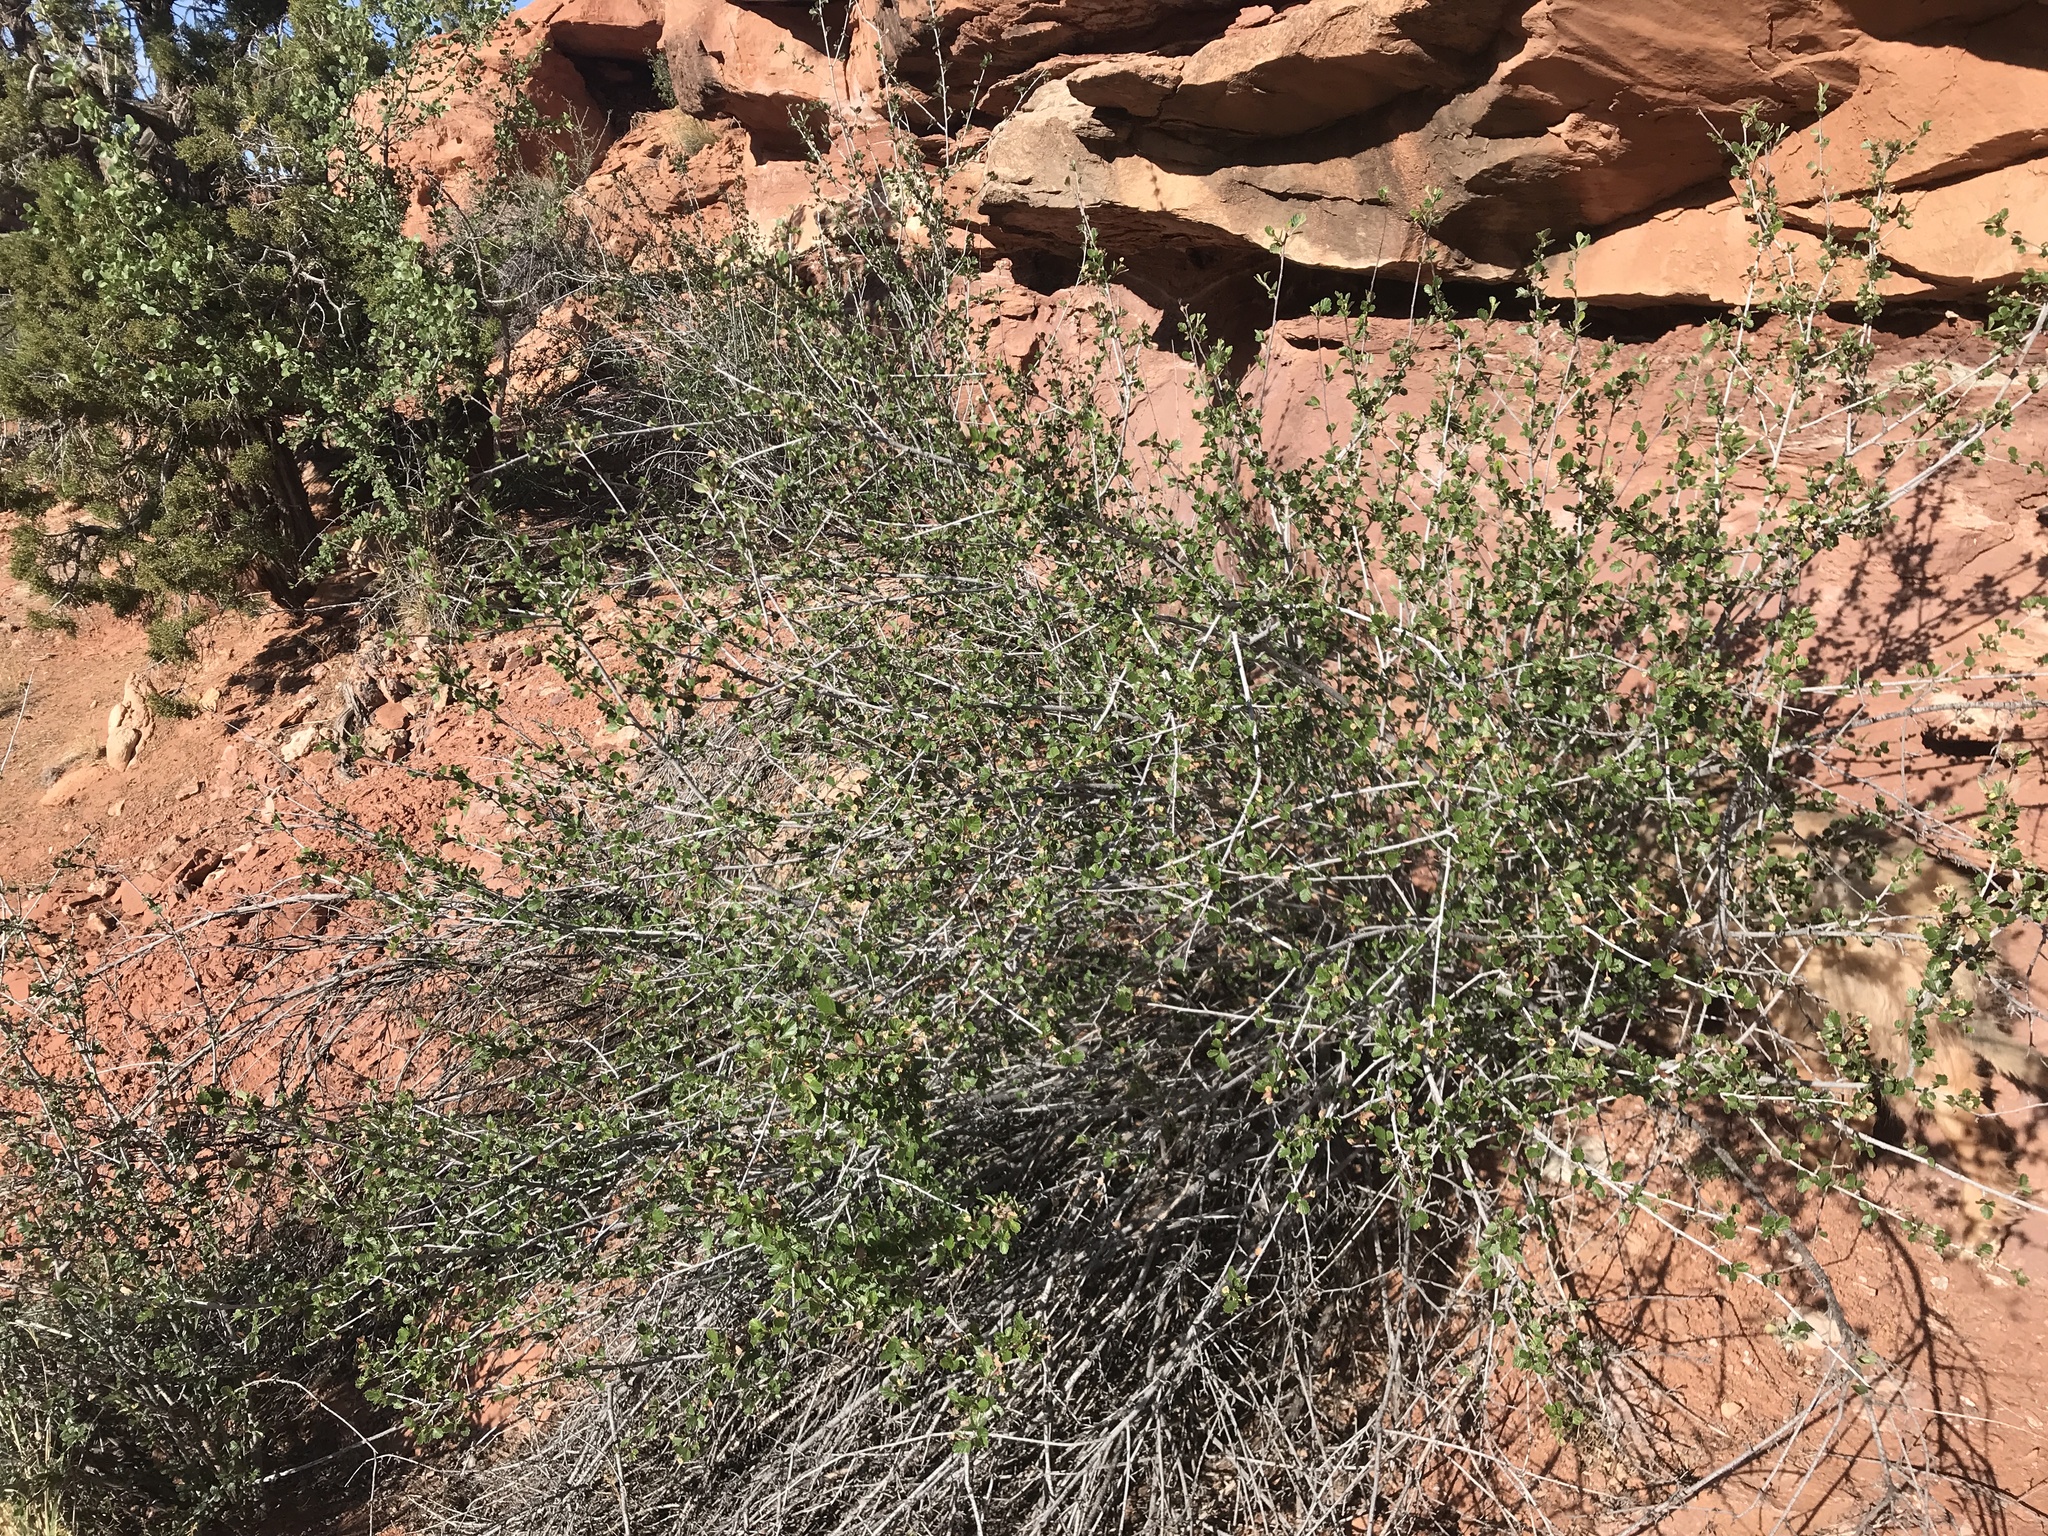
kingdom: Plantae
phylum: Tracheophyta
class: Magnoliopsida
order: Rosales
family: Rosaceae
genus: Cercocarpus
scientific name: Cercocarpus montanus
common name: Alder-leaf cercocarpus
